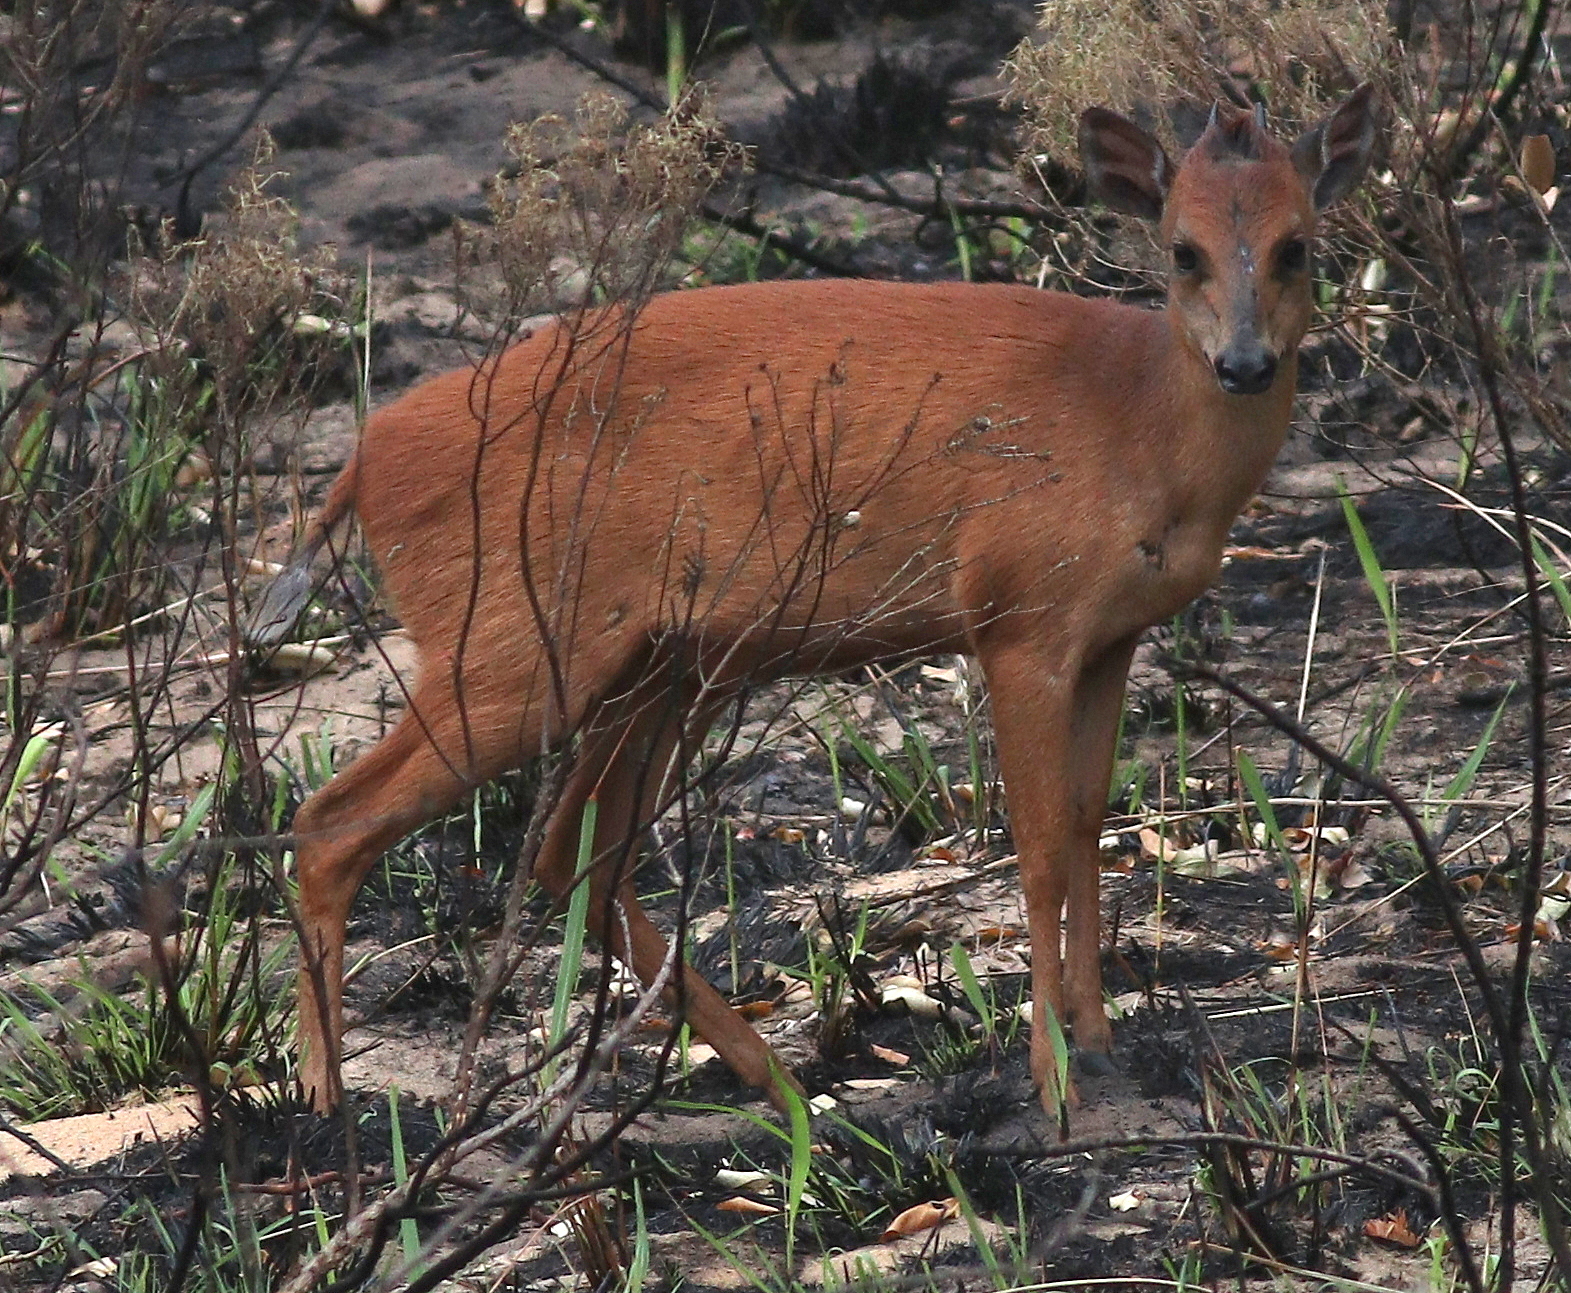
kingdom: Animalia
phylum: Chordata
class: Mammalia
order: Artiodactyla
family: Bovidae
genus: Cephalophus
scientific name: Cephalophus natalensis
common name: Red duiker
